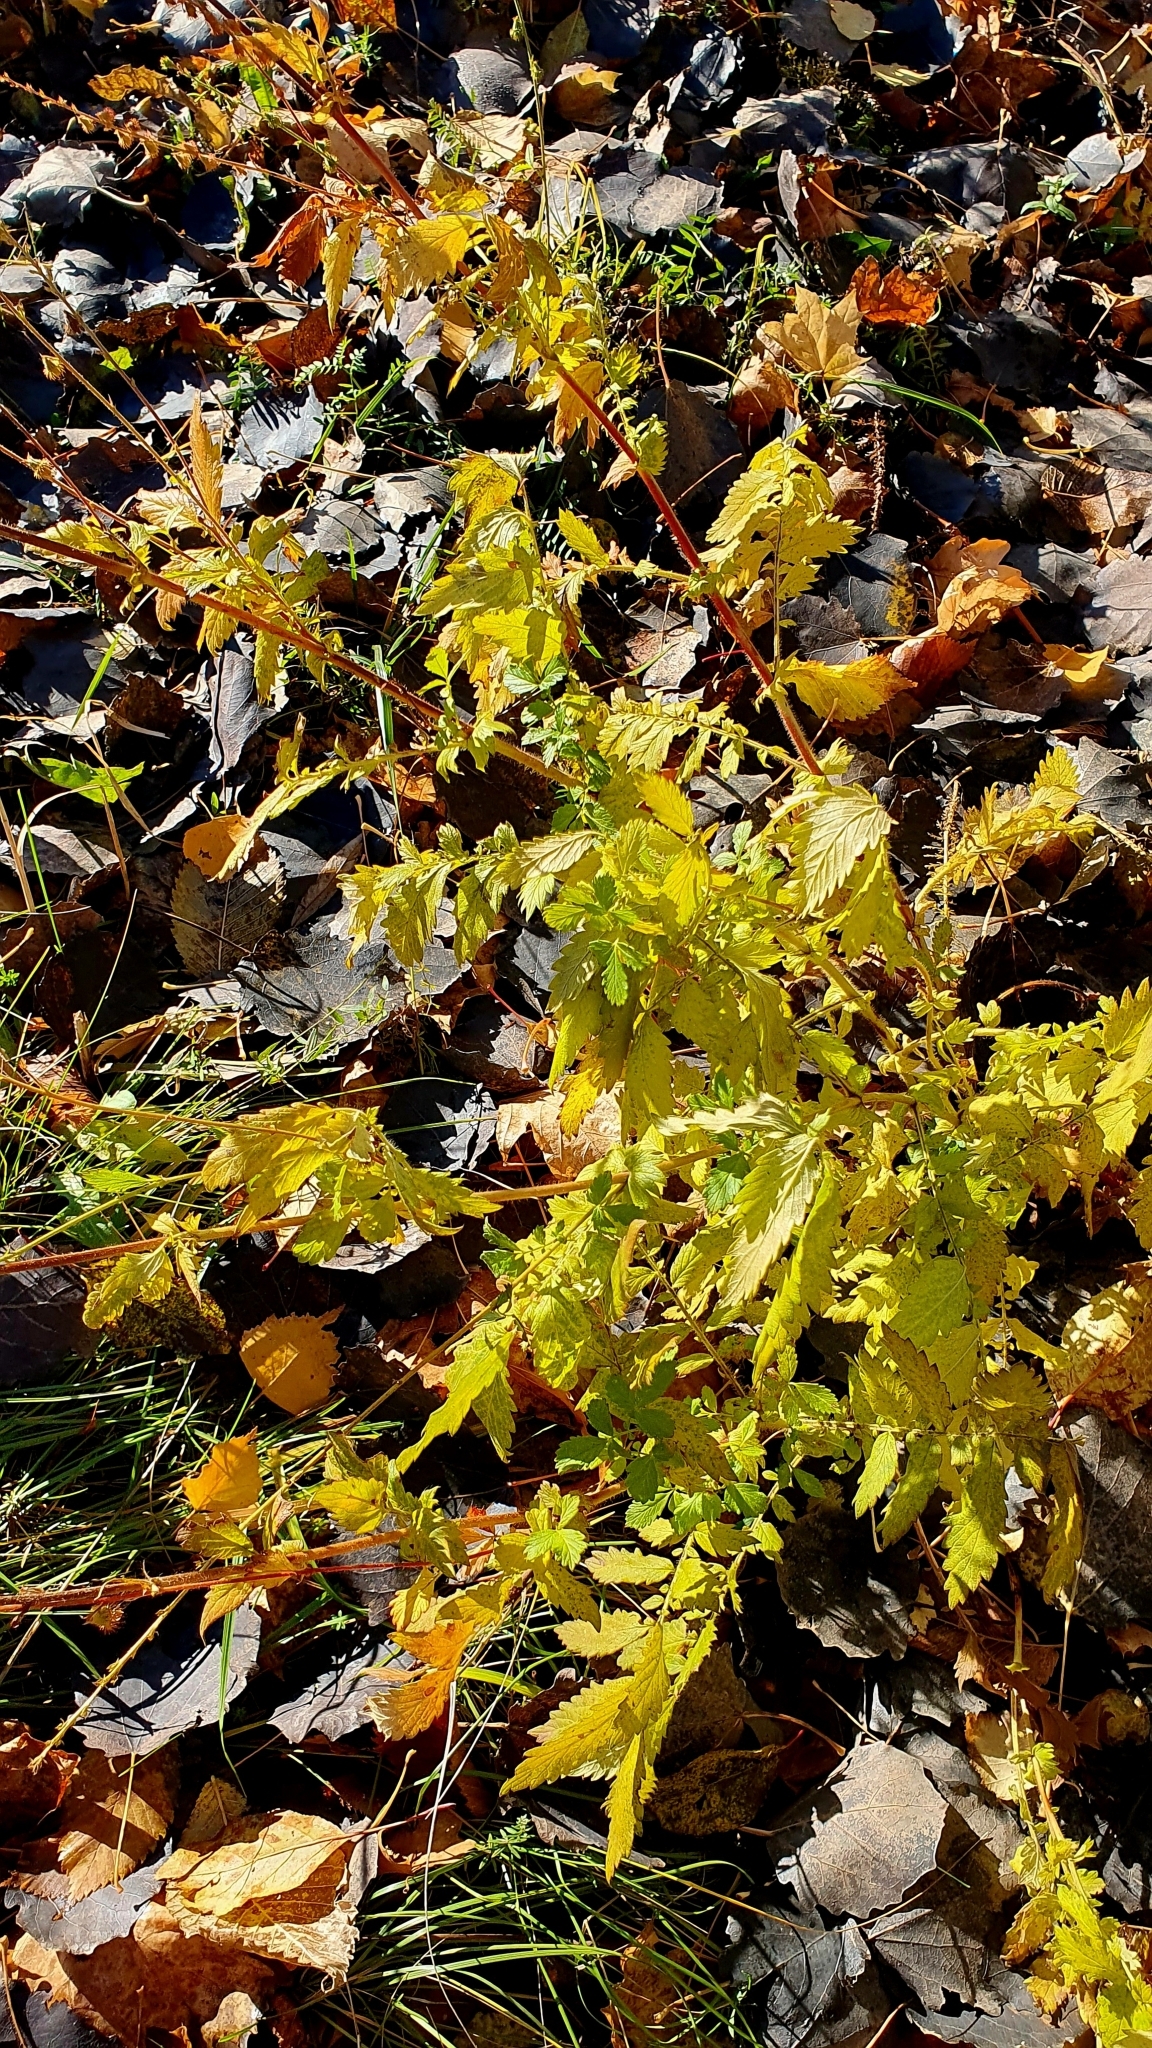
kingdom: Plantae
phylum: Tracheophyta
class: Magnoliopsida
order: Rosales
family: Rosaceae
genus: Agrimonia
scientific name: Agrimonia eupatoria
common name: Agrimony
